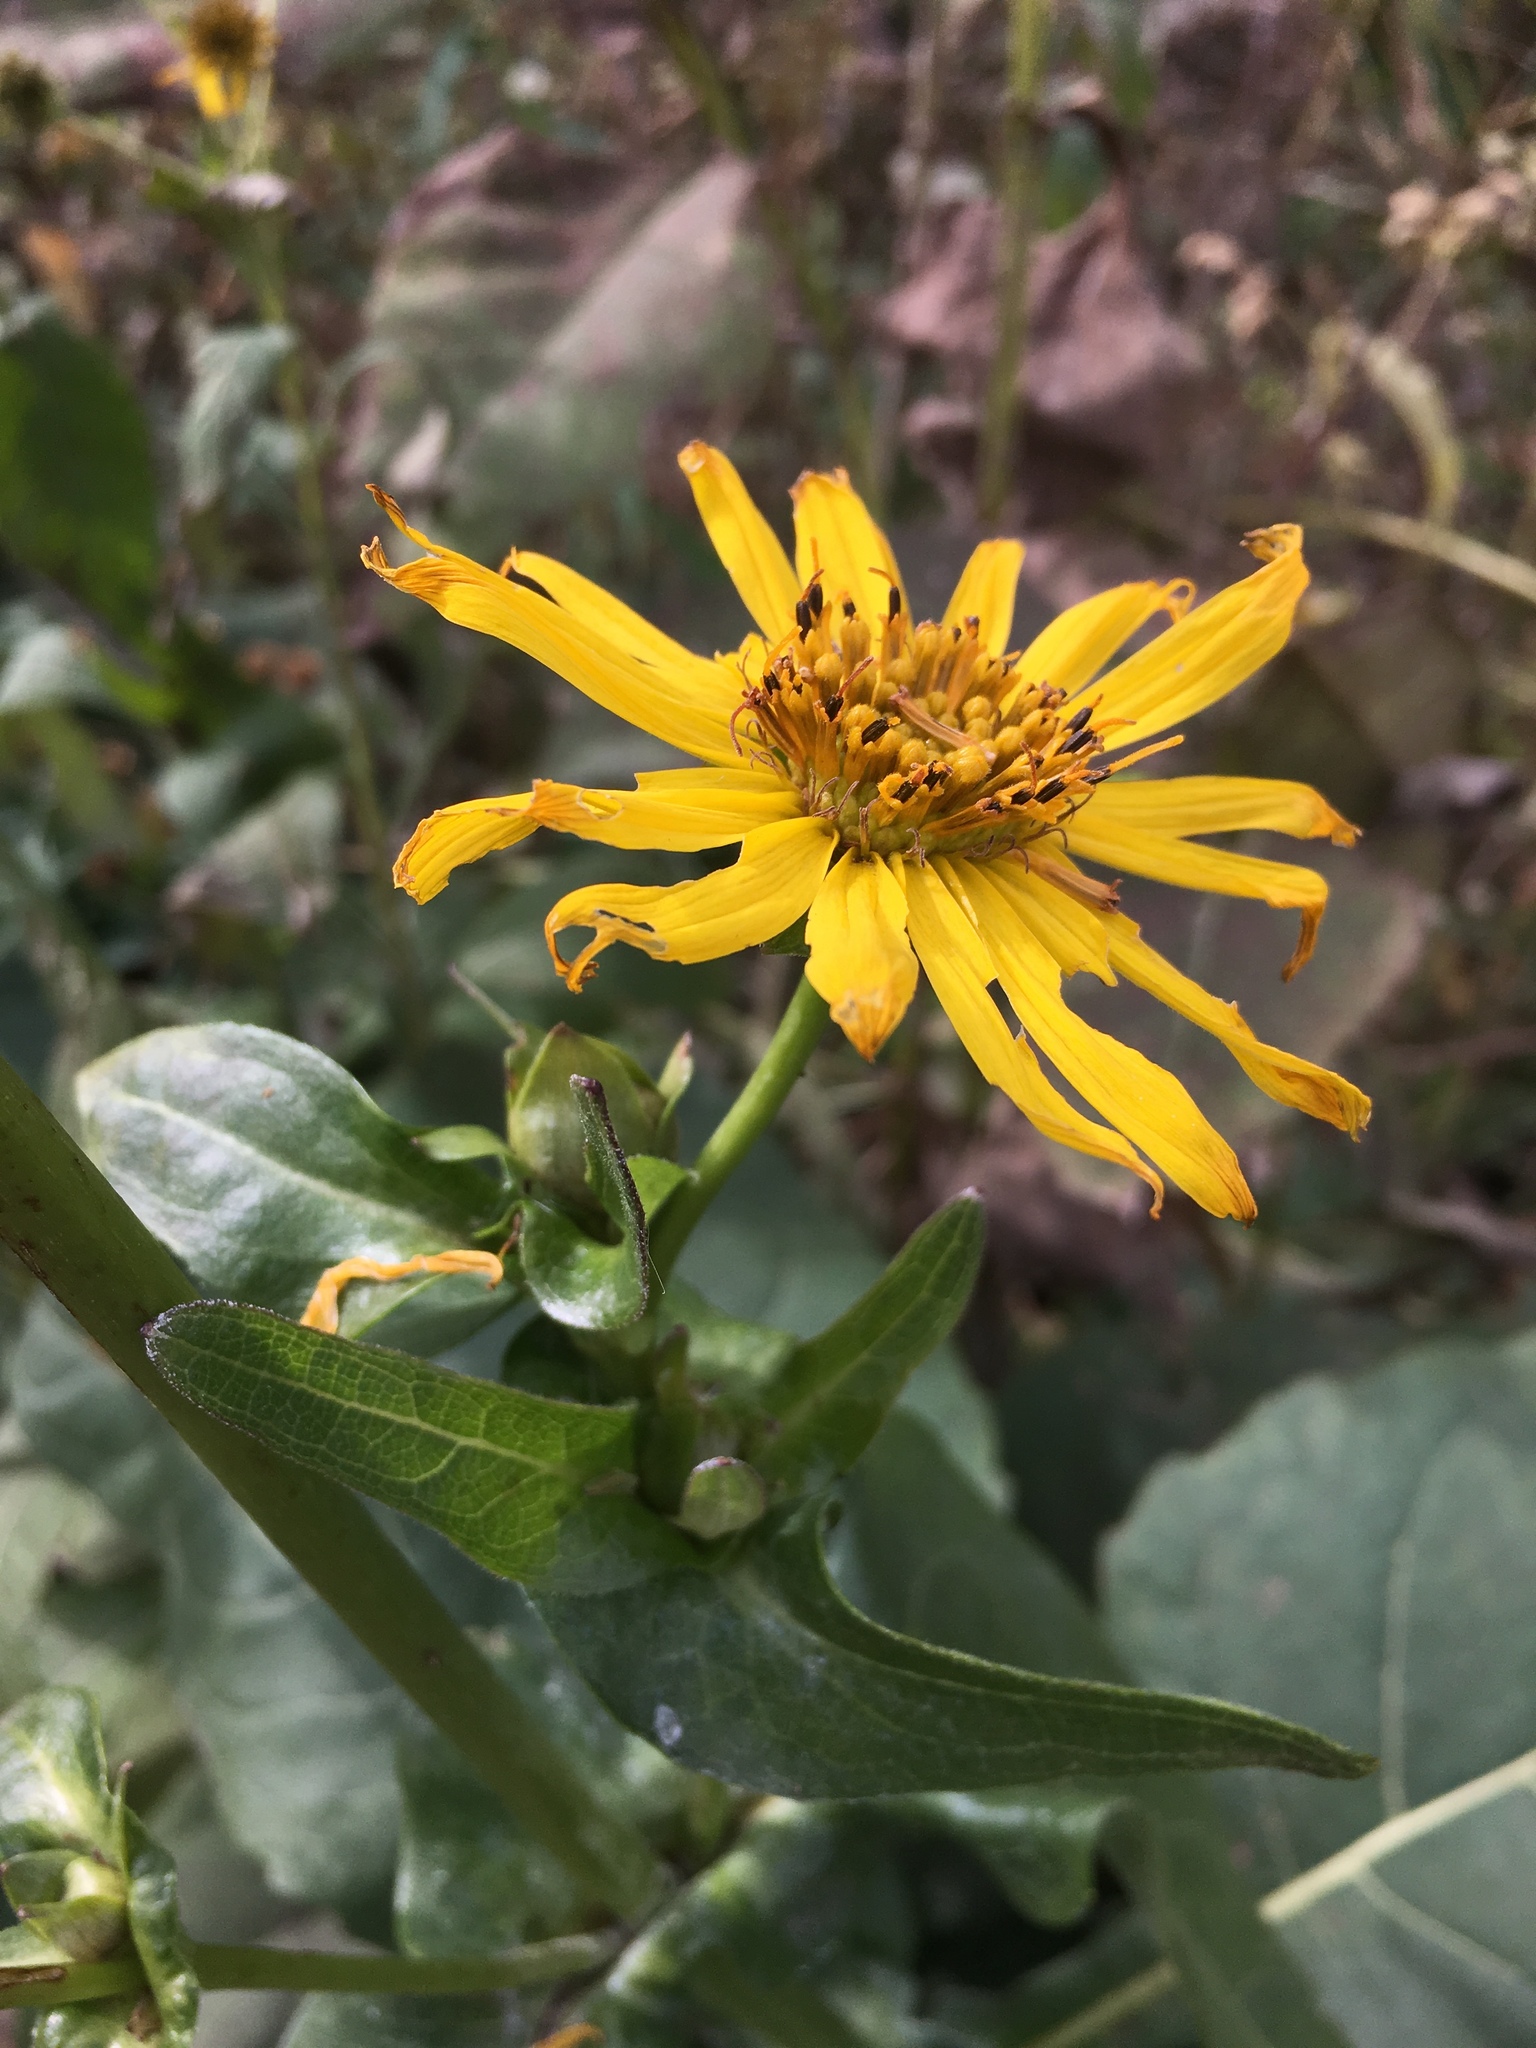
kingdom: Plantae
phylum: Tracheophyta
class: Magnoliopsida
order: Asterales
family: Asteraceae
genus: Silphium
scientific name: Silphium perfoliatum
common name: Cup-plant
